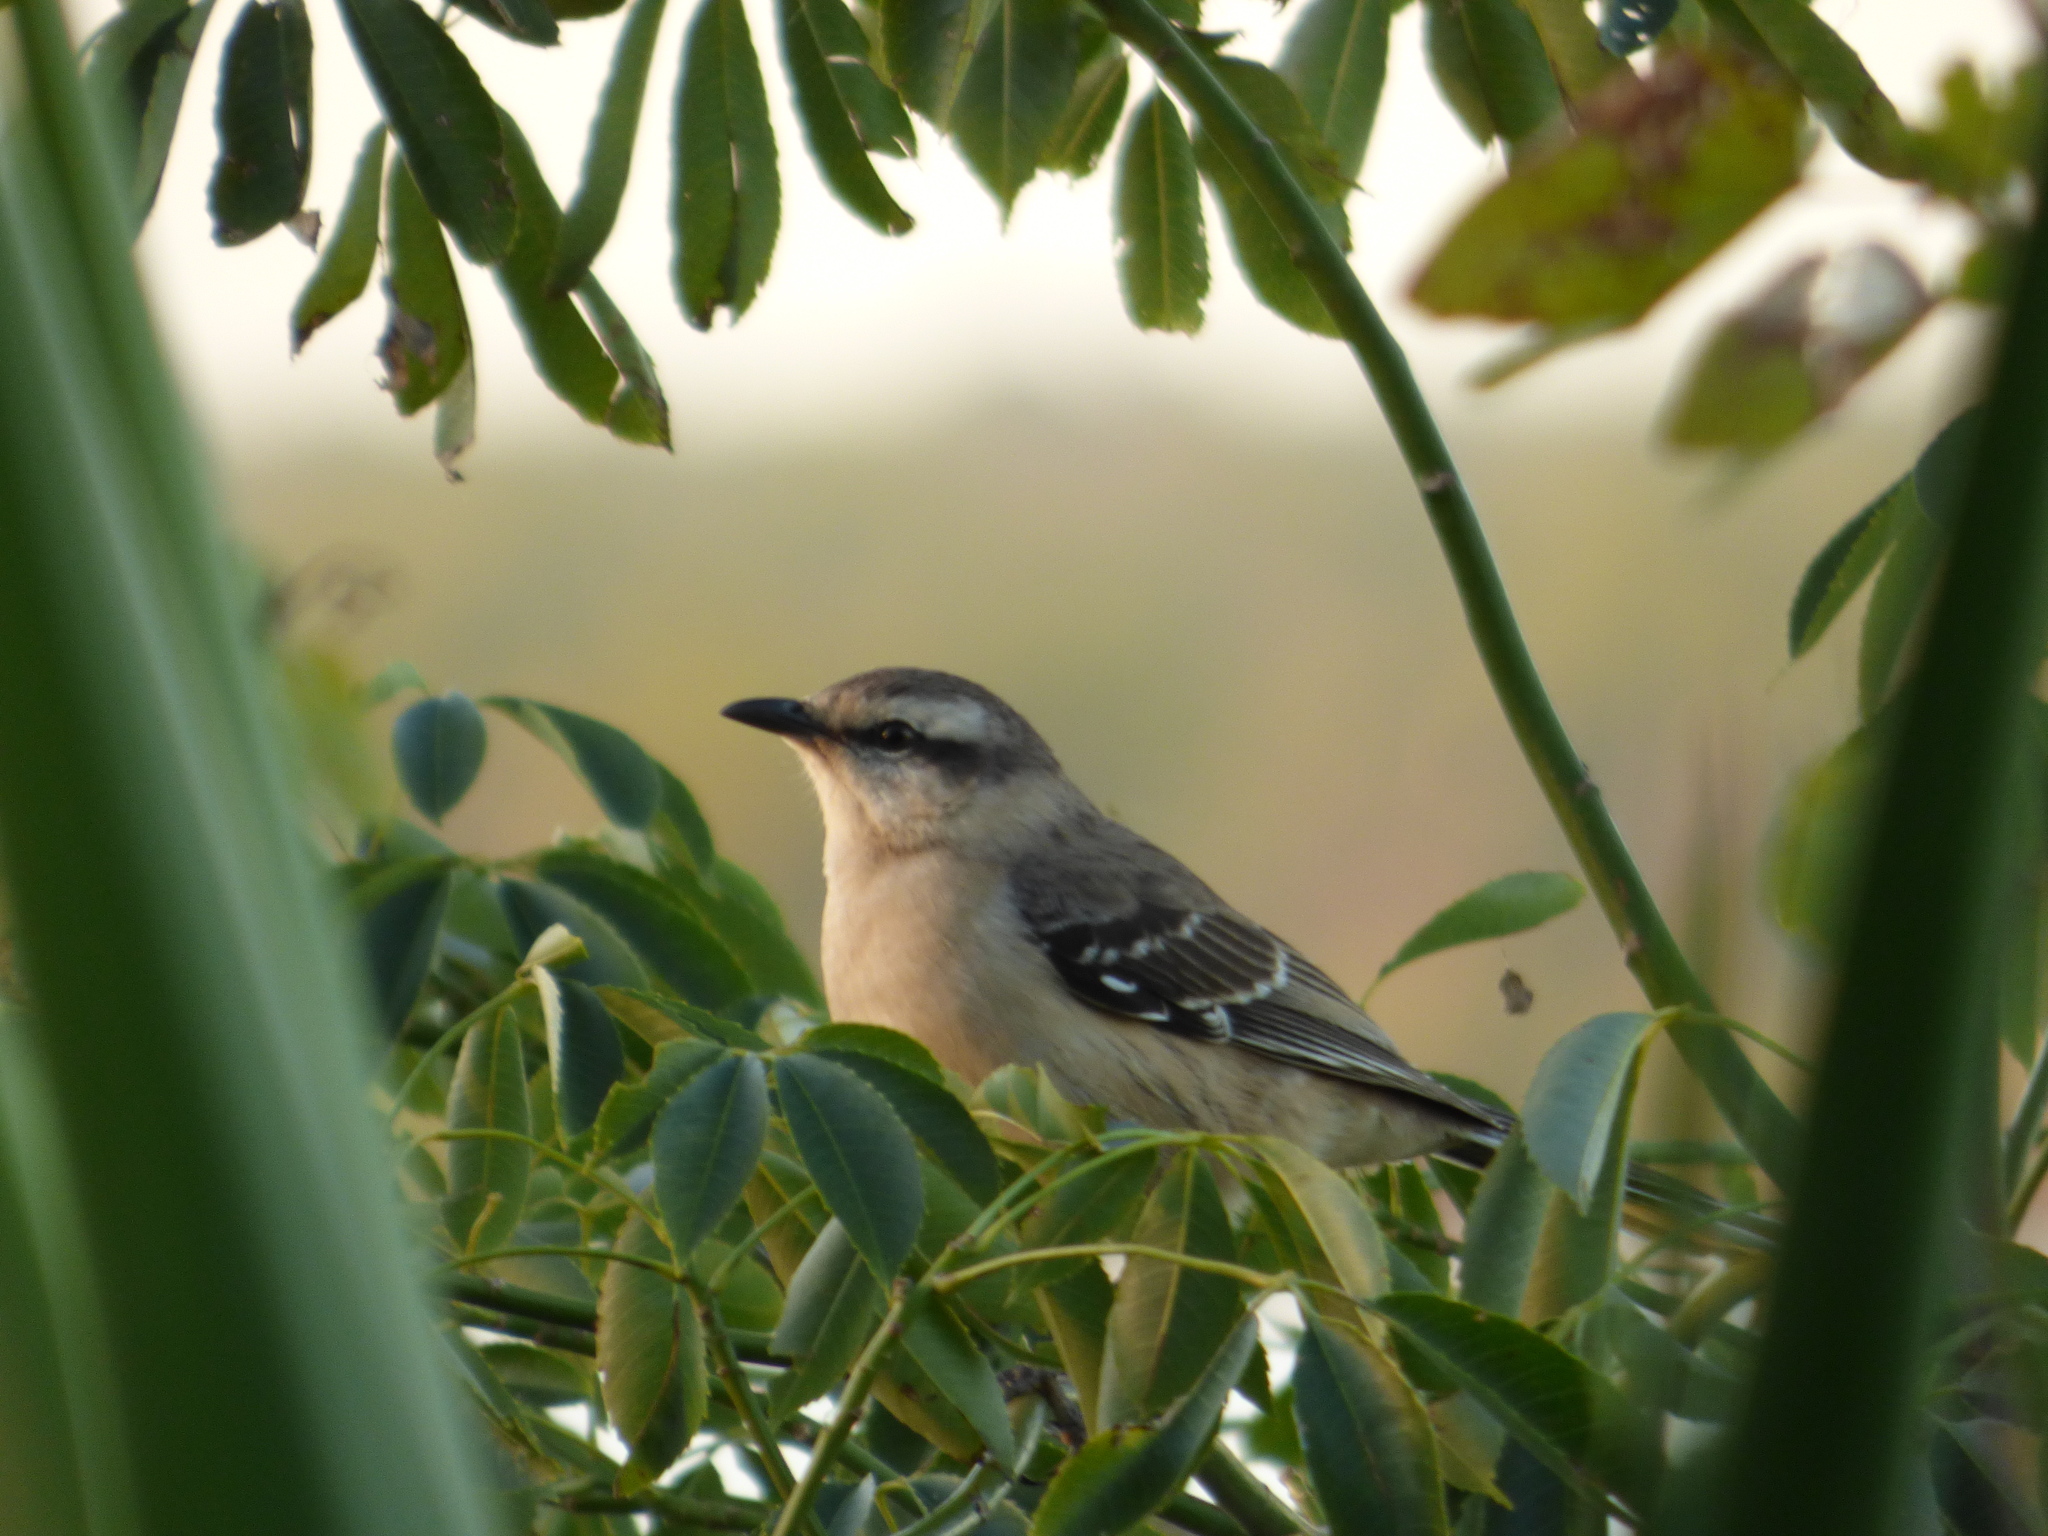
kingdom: Animalia
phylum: Chordata
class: Aves
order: Passeriformes
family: Mimidae
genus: Mimus
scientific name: Mimus saturninus
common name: Chalk-browed mockingbird
